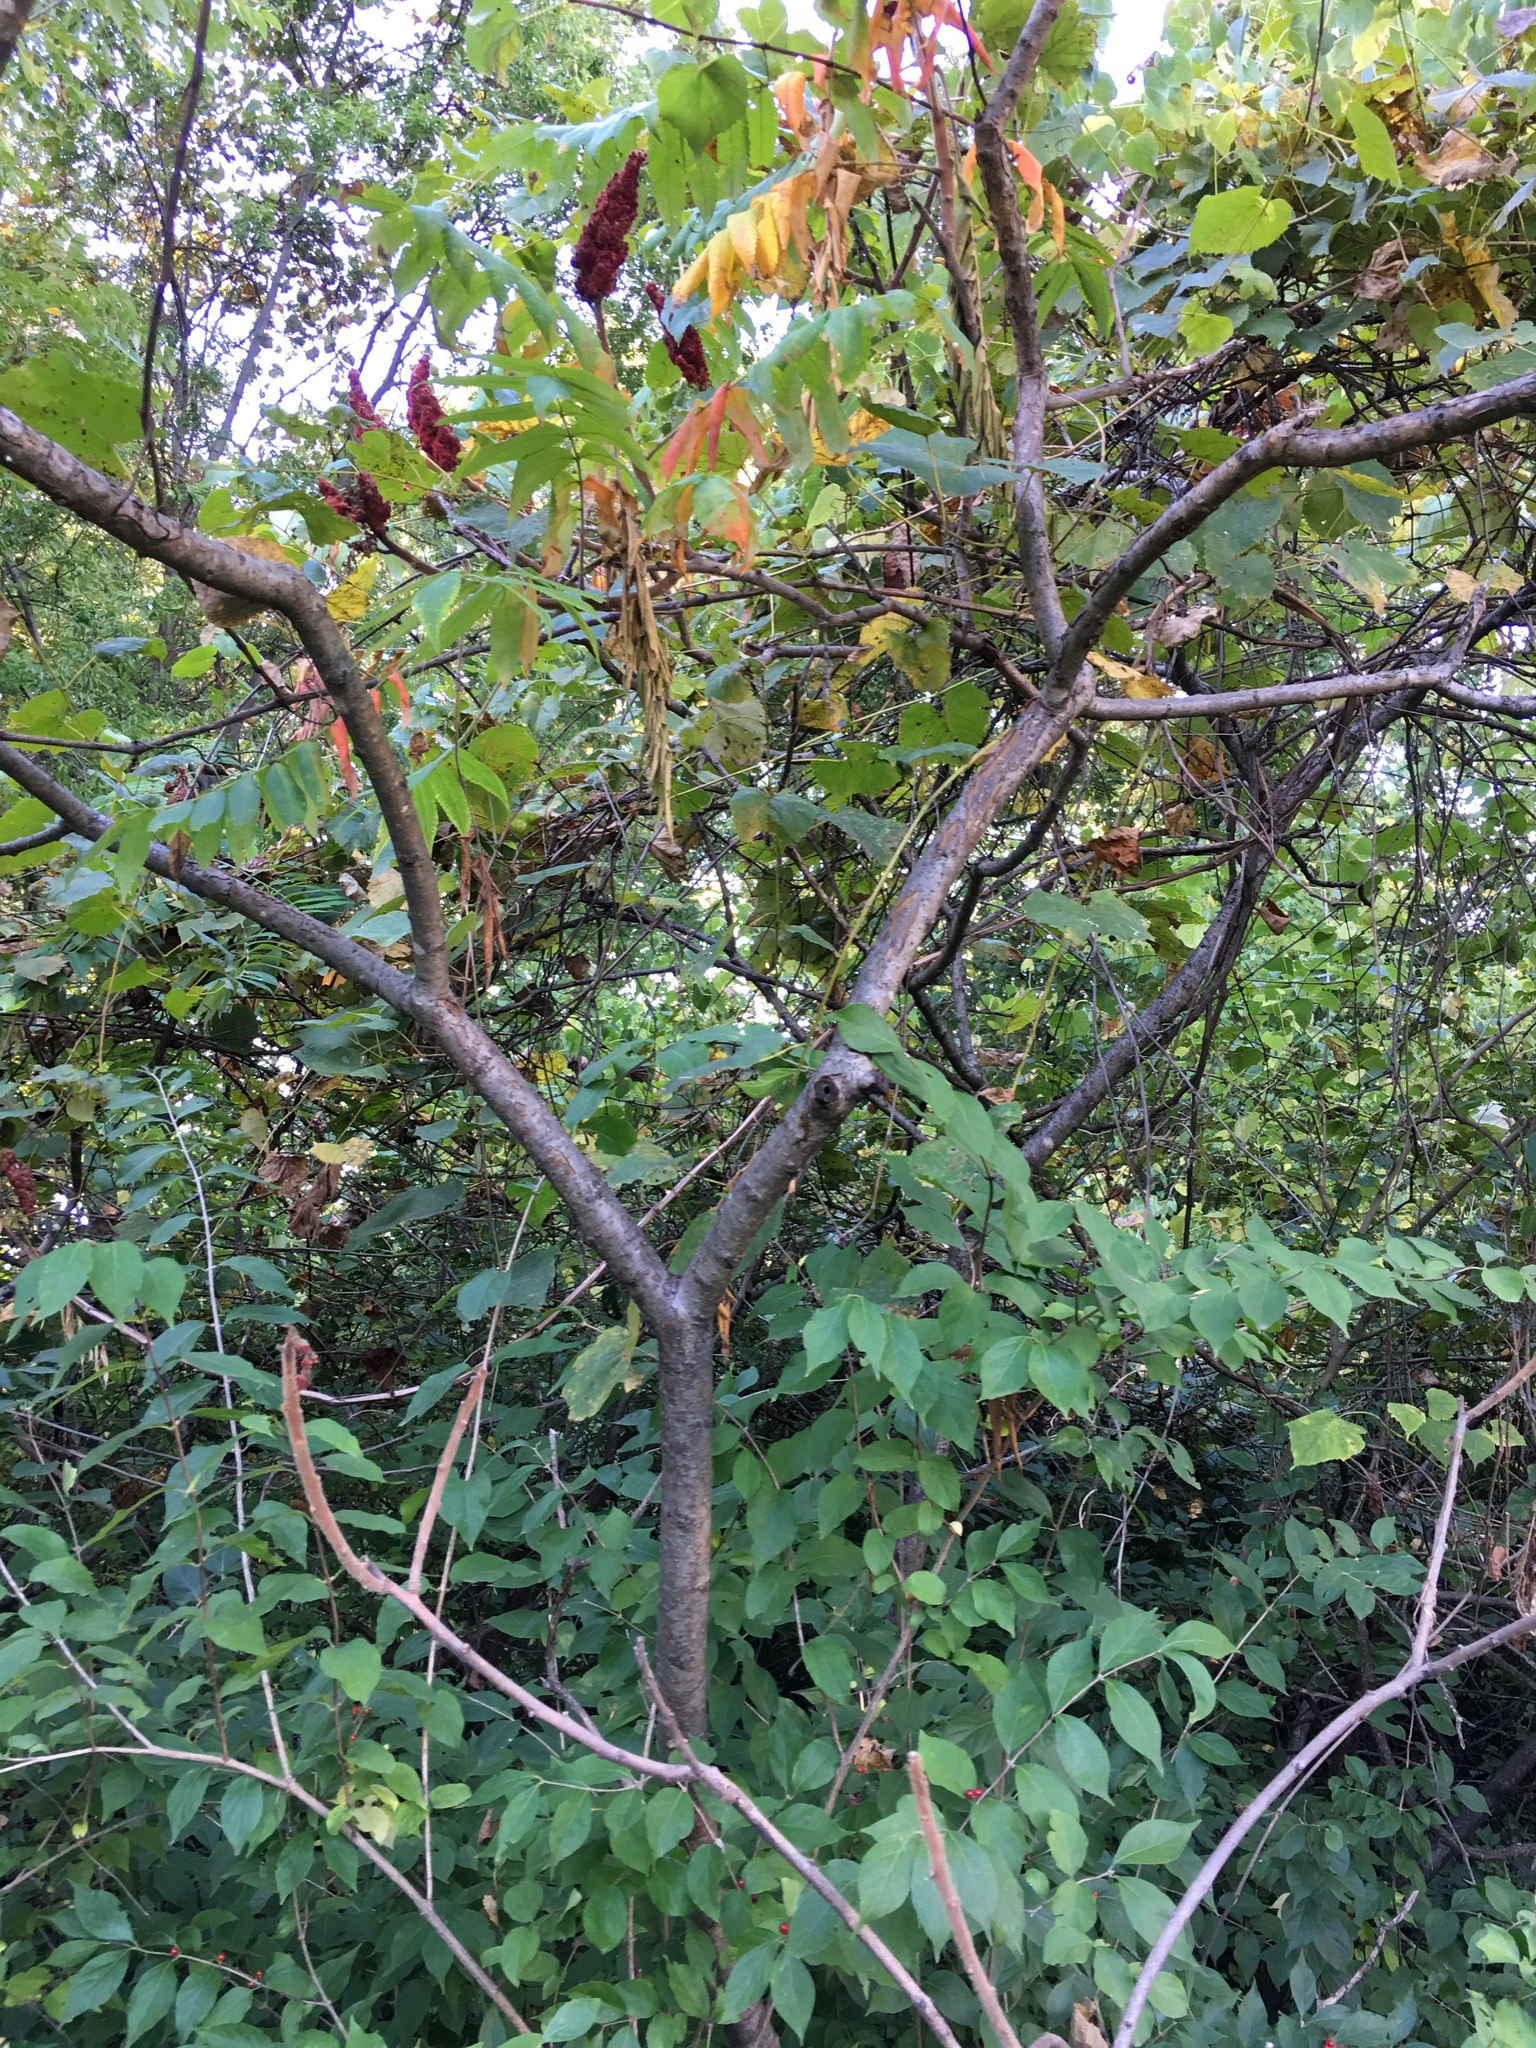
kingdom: Plantae
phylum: Tracheophyta
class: Magnoliopsida
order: Sapindales
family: Anacardiaceae
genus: Rhus
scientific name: Rhus typhina
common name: Staghorn sumac
